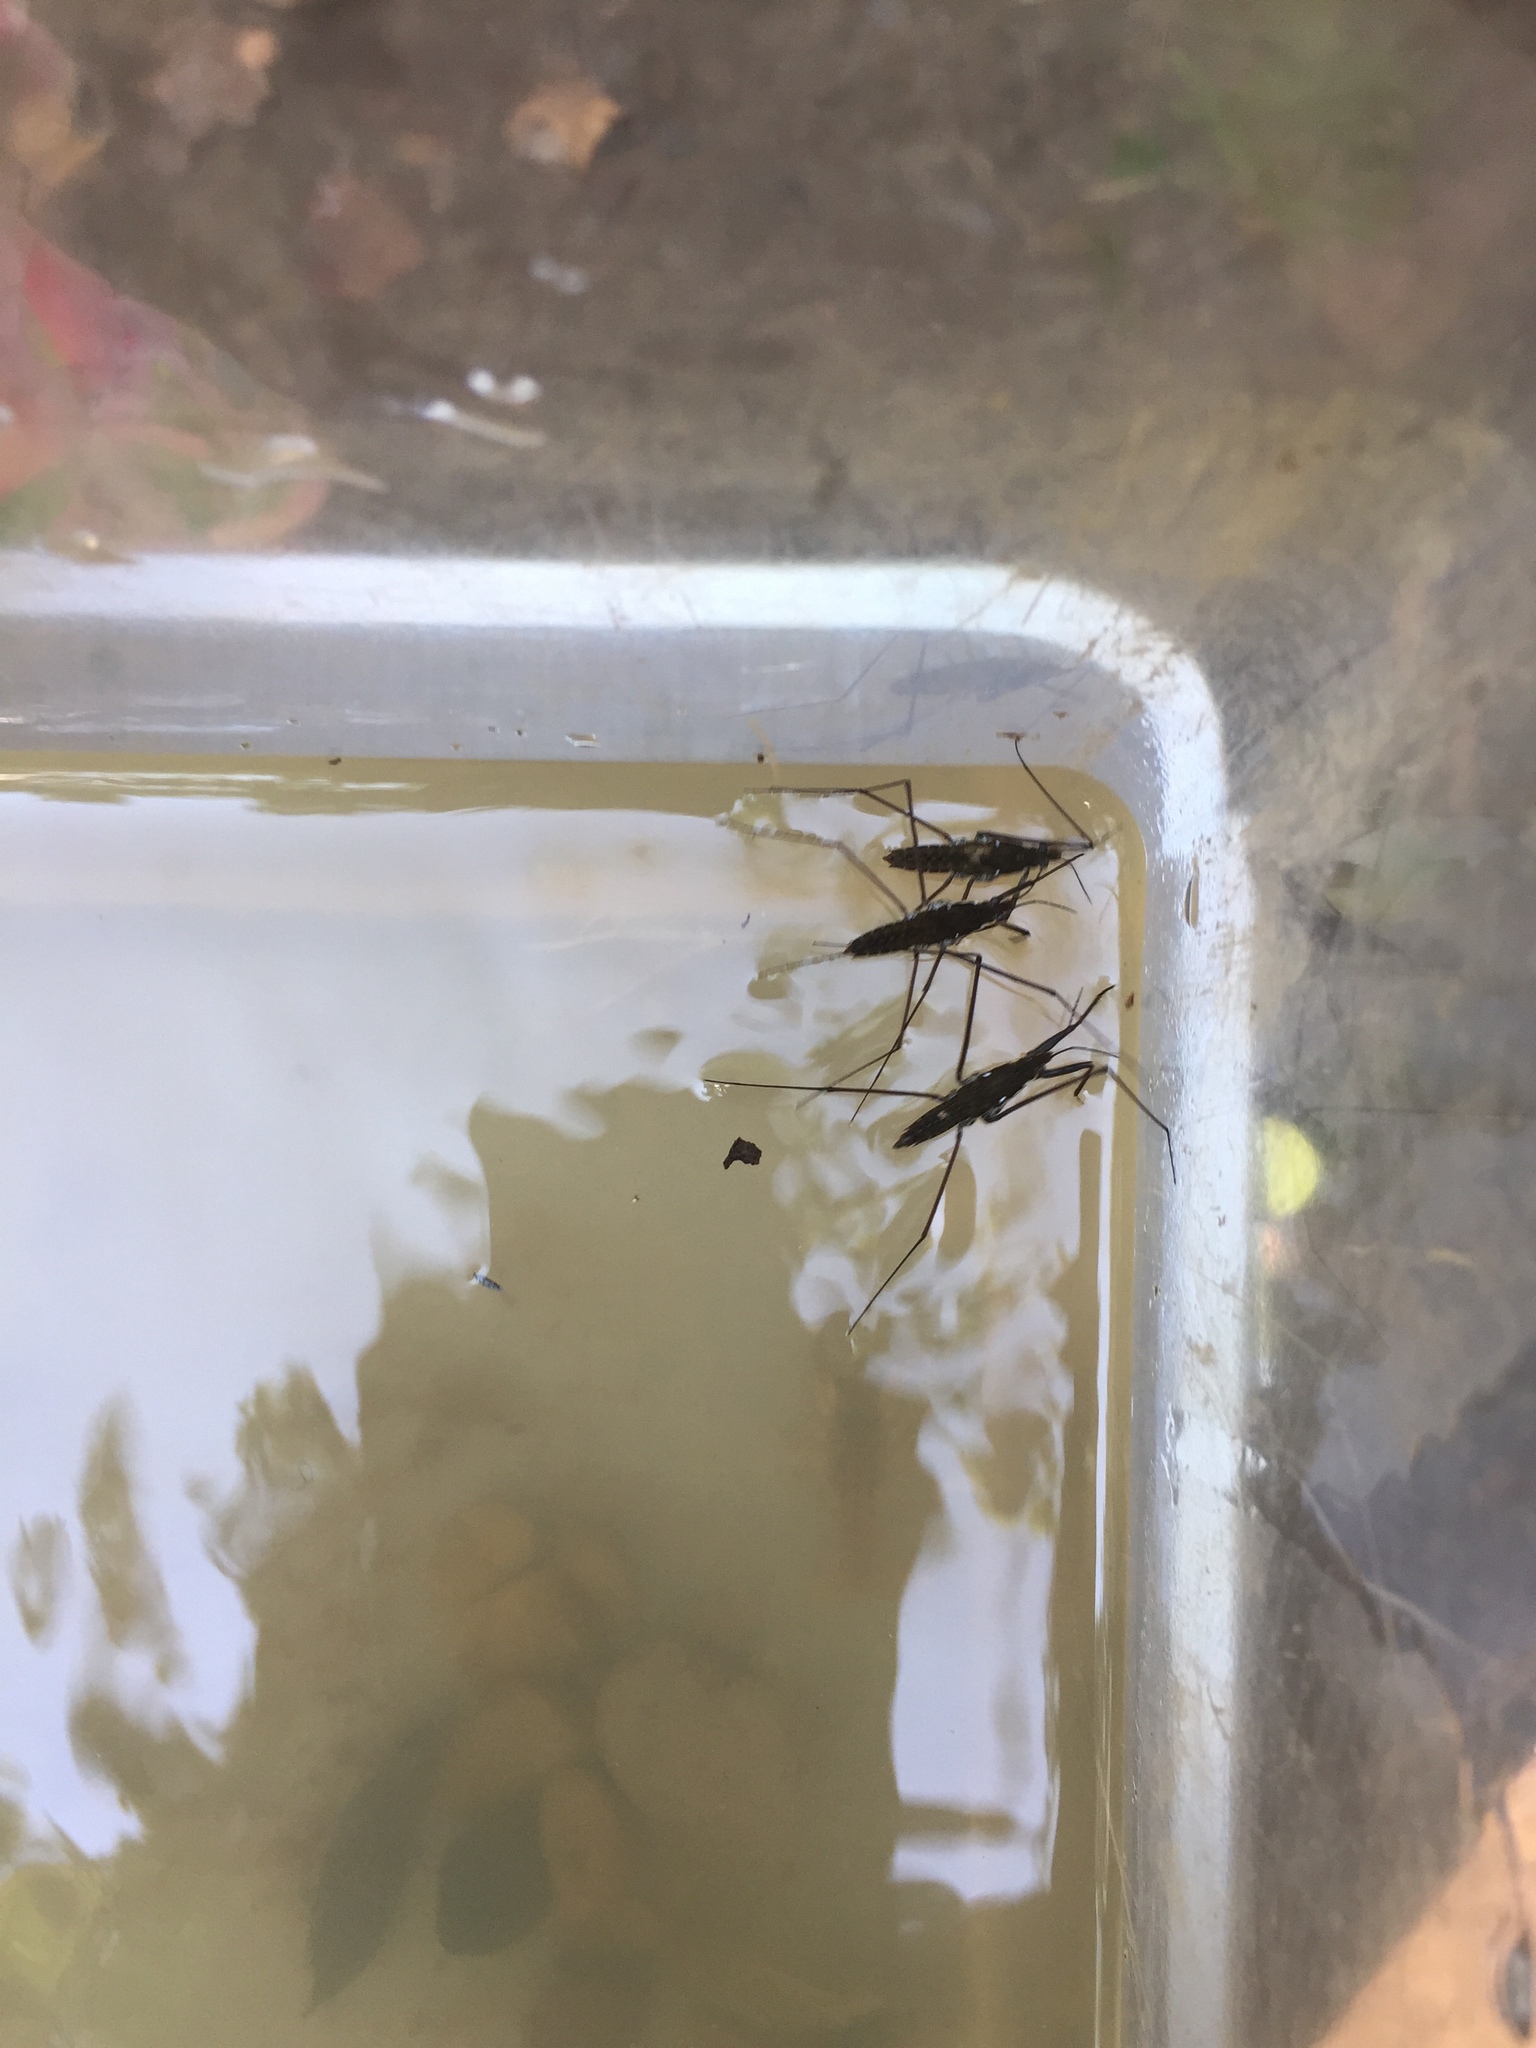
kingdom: Animalia
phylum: Arthropoda
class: Insecta
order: Hemiptera
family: Gerridae
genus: Aquarius
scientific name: Aquarius
